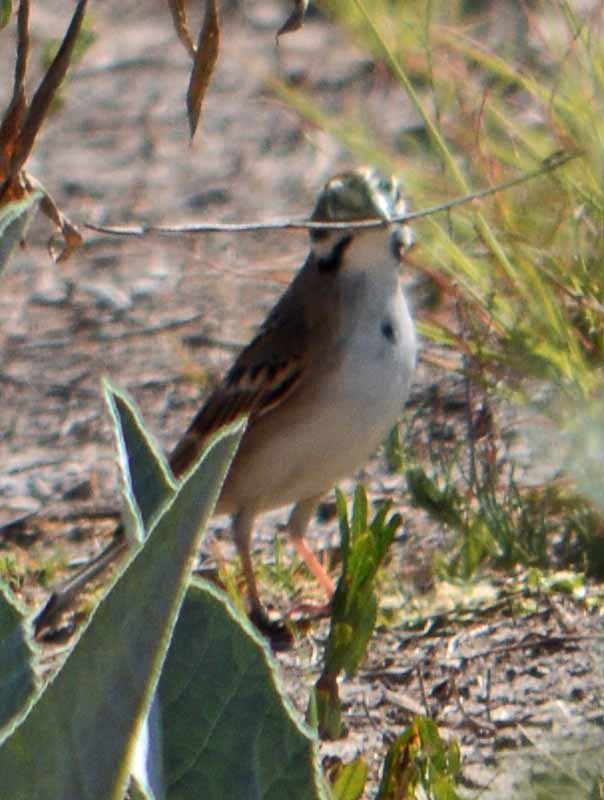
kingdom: Animalia
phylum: Chordata
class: Aves
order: Passeriformes
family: Passerellidae
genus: Chondestes
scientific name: Chondestes grammacus
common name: Lark sparrow
